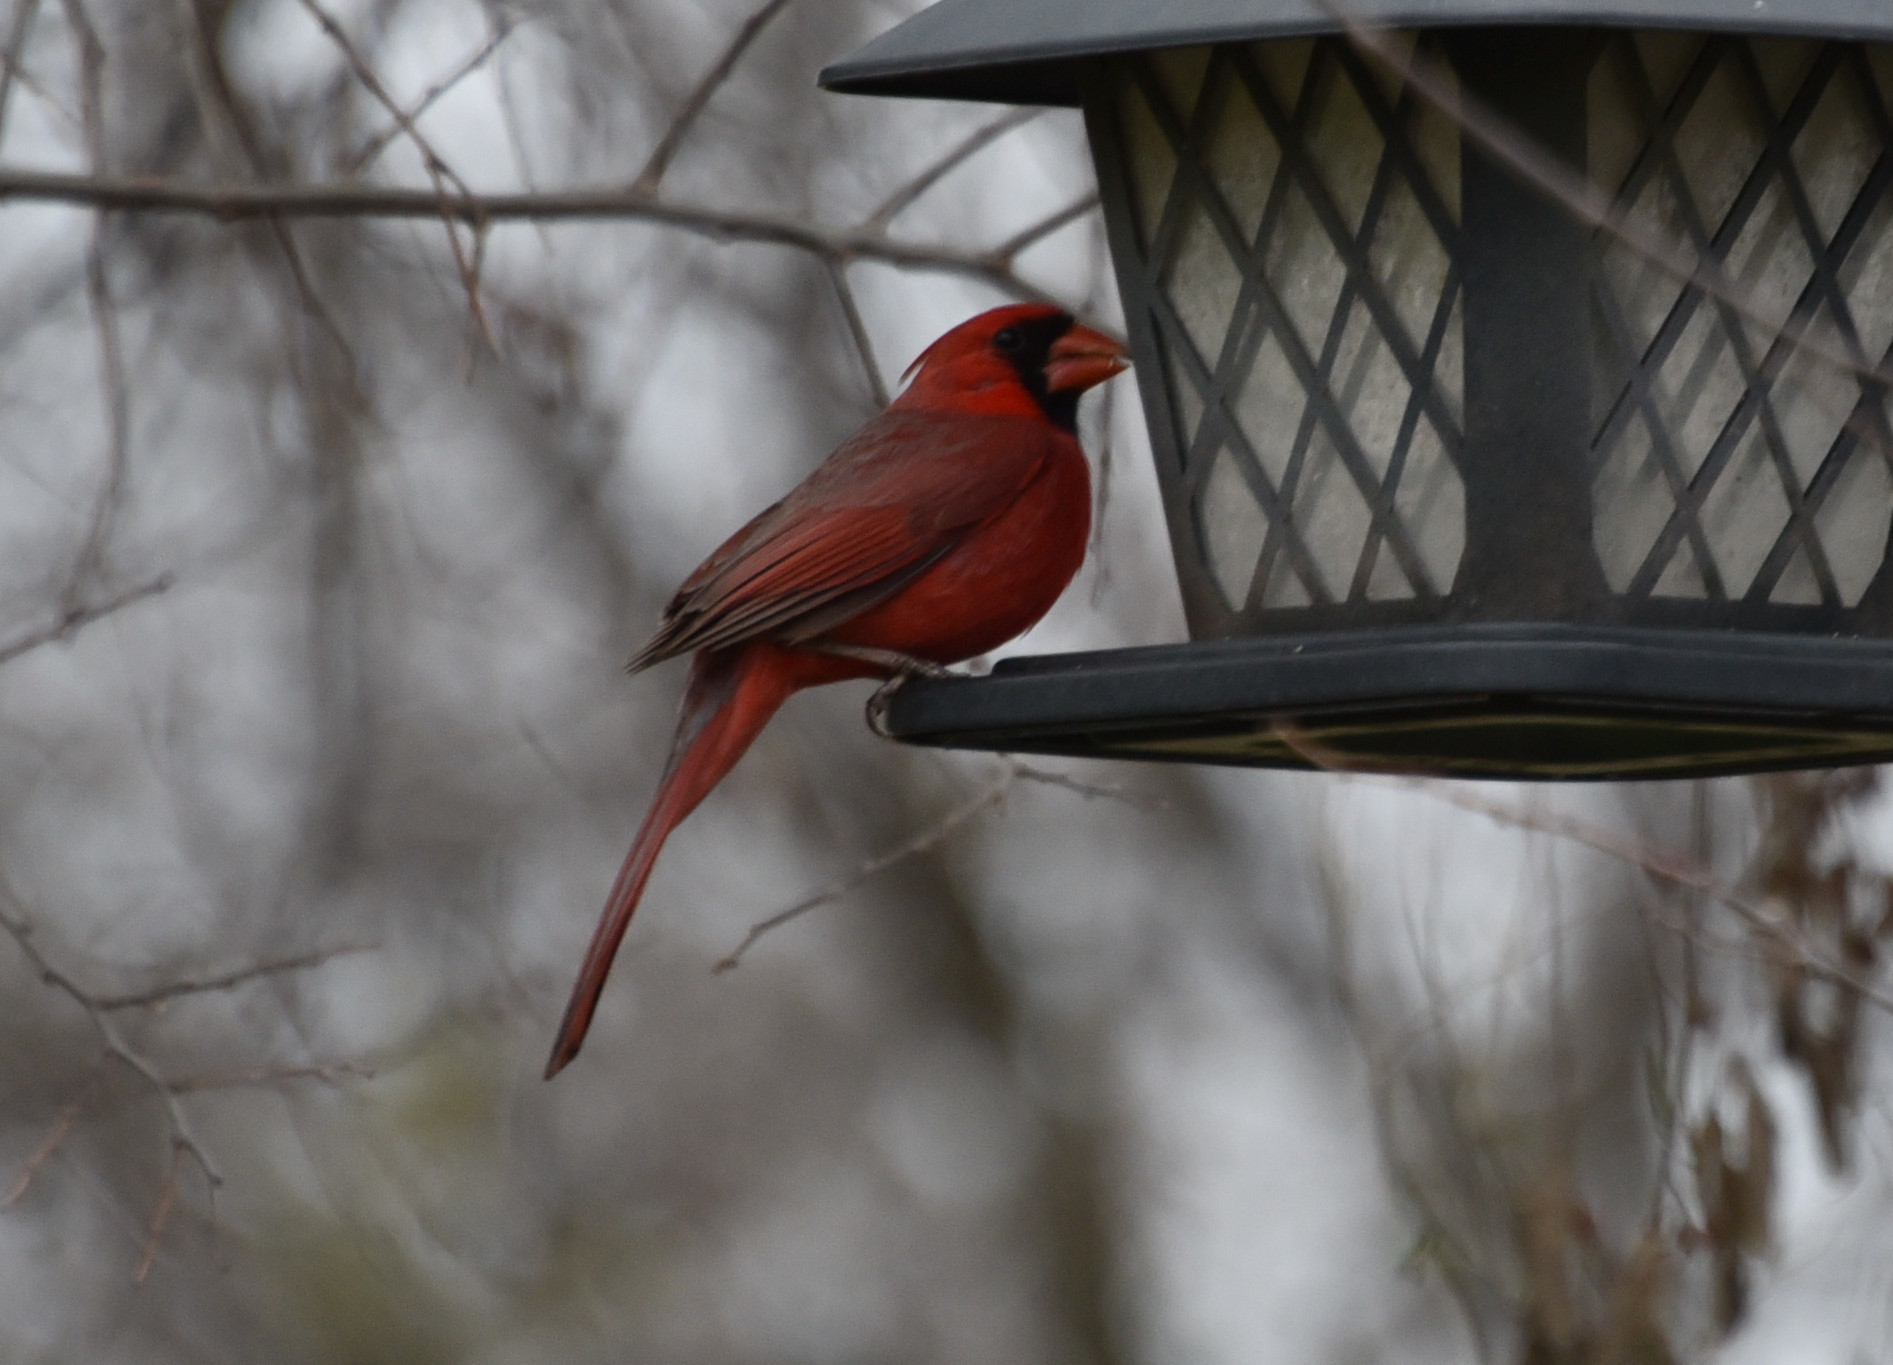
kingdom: Animalia
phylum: Chordata
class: Aves
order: Passeriformes
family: Cardinalidae
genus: Cardinalis
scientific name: Cardinalis cardinalis
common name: Northern cardinal
